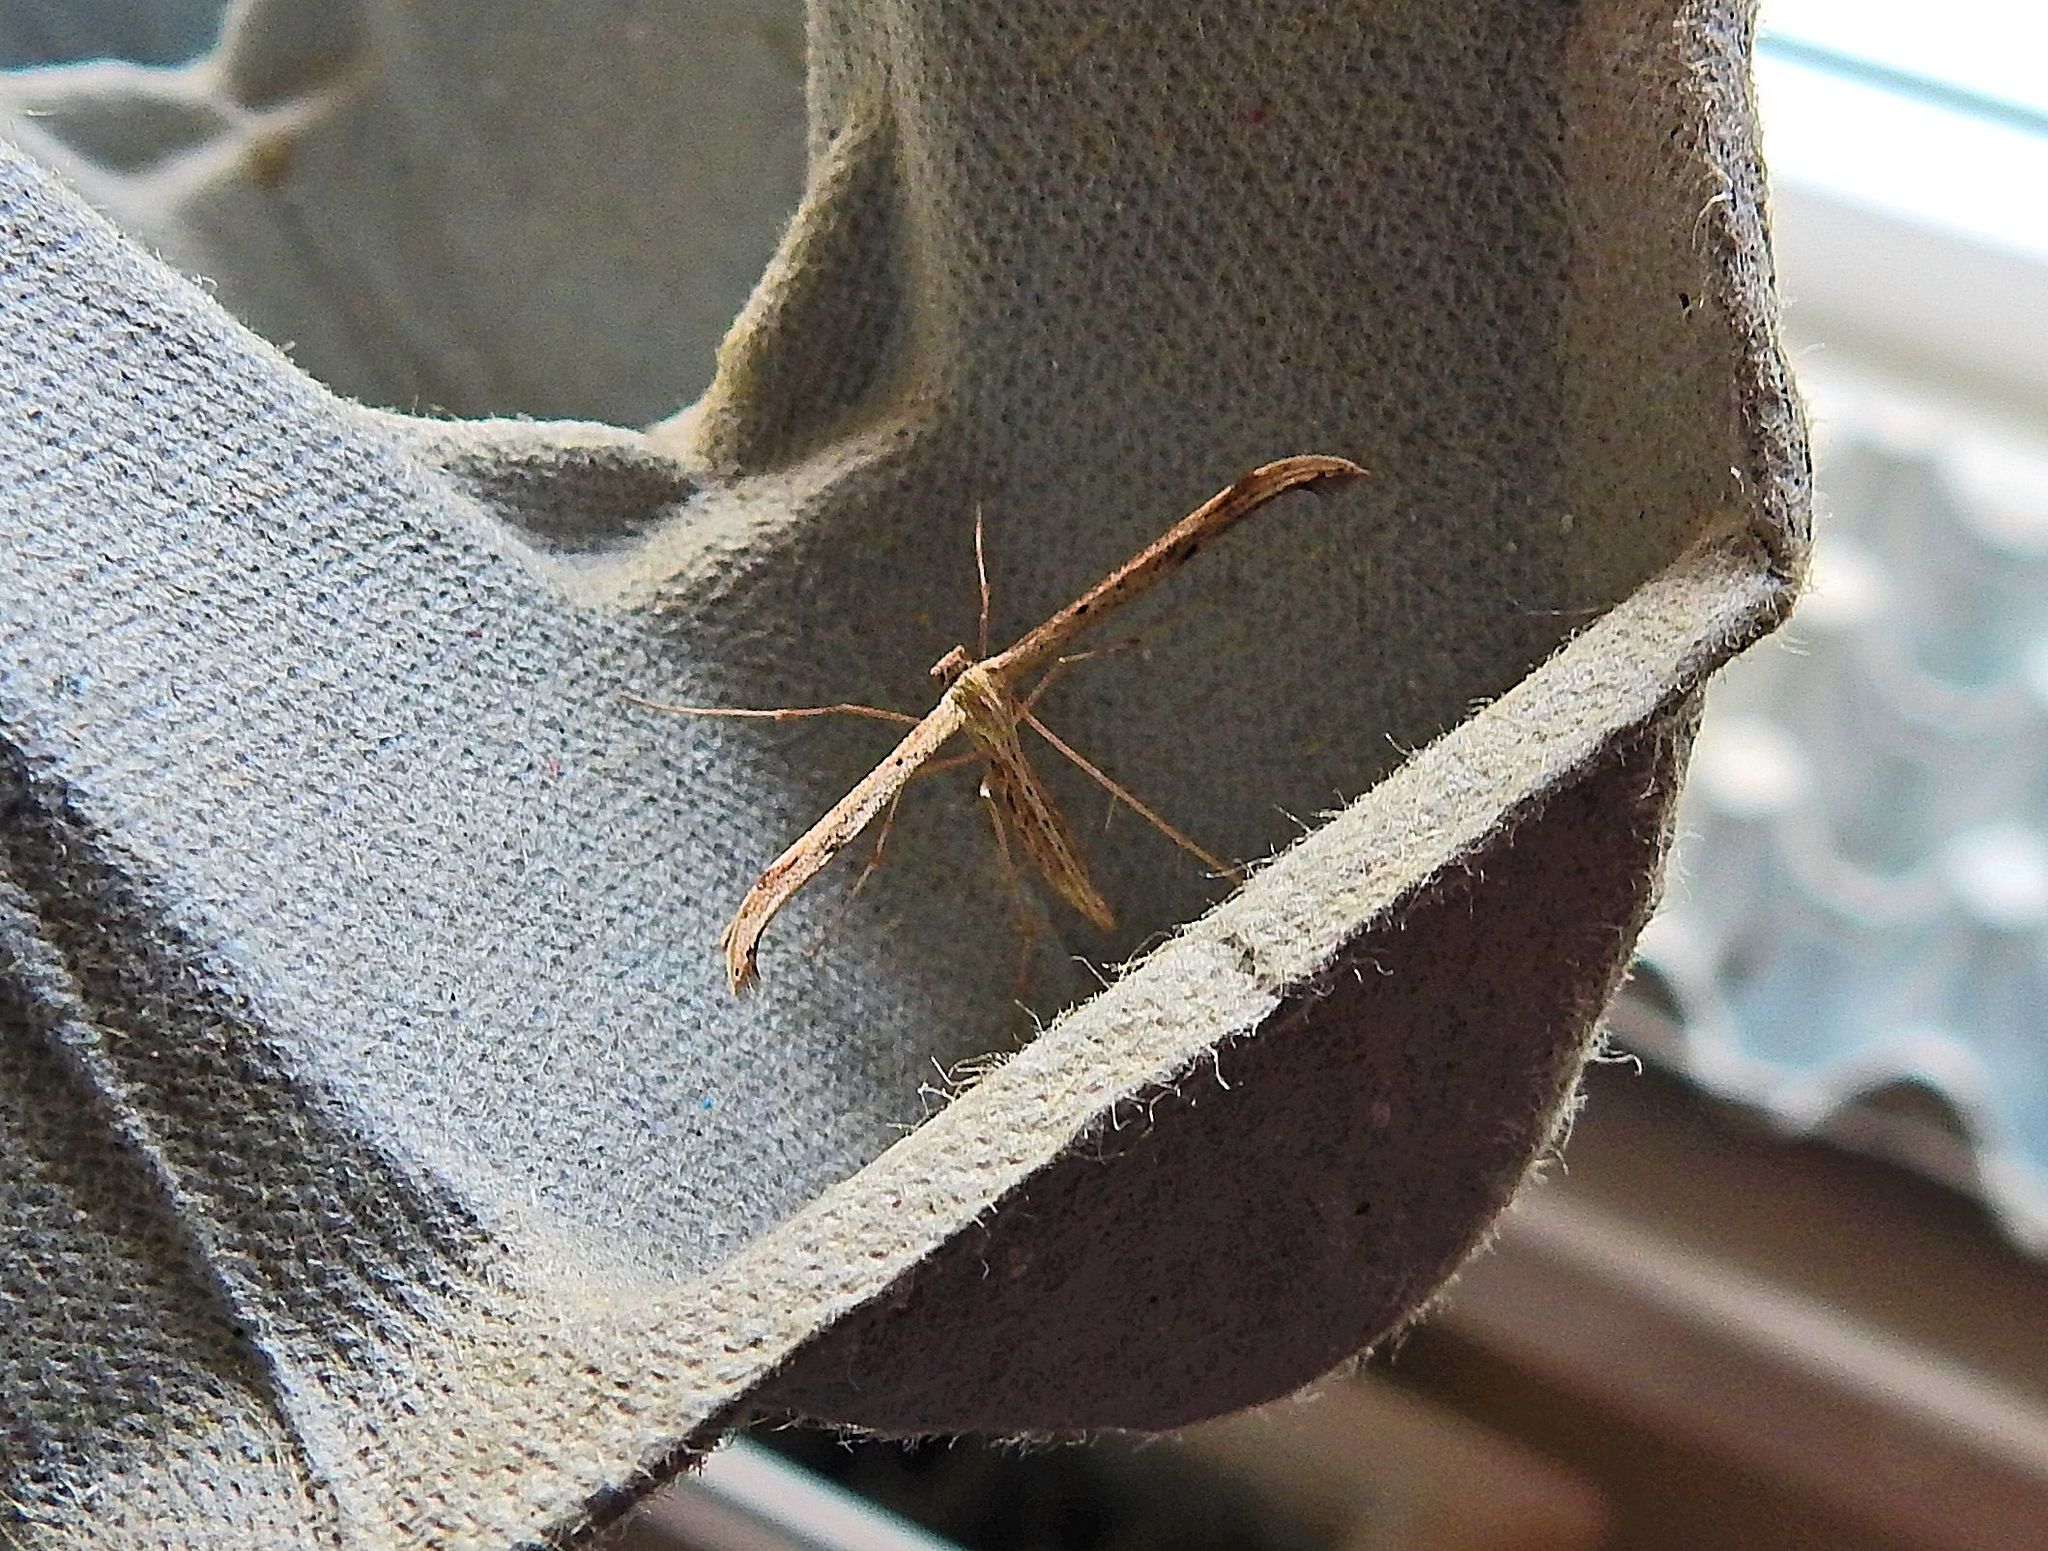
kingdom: Animalia
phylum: Arthropoda
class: Insecta
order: Lepidoptera
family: Pterophoridae
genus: Emmelina
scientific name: Emmelina monodactyla
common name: Common plume
